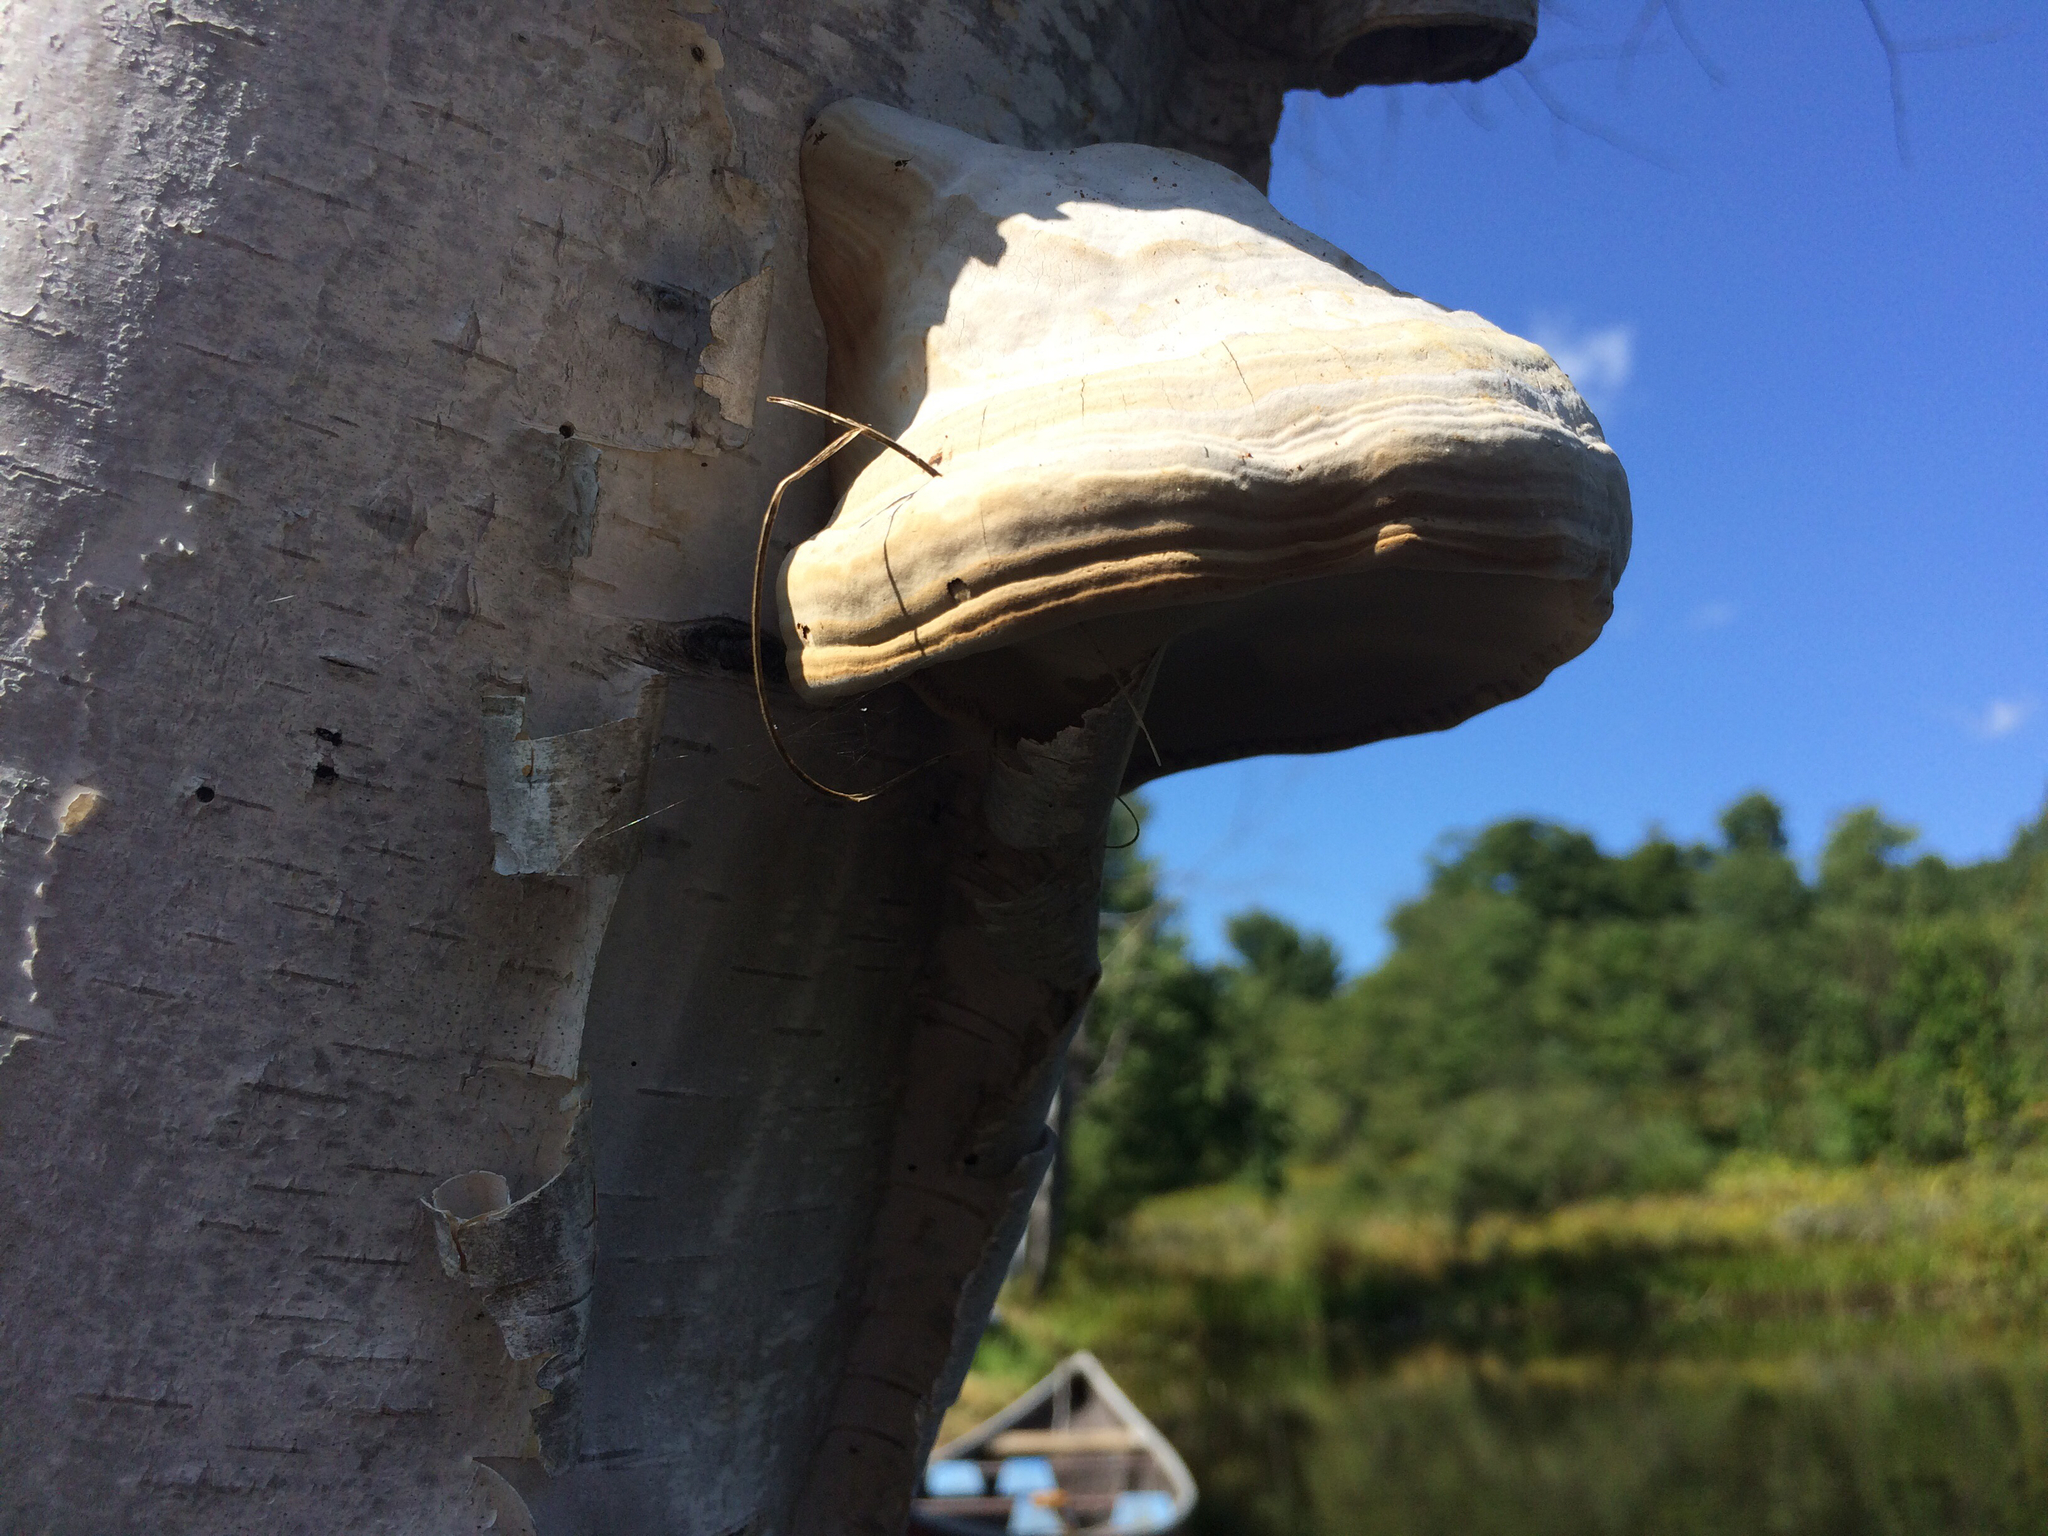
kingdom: Fungi
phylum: Basidiomycota
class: Agaricomycetes
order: Polyporales
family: Polyporaceae
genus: Fomes
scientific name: Fomes fomentarius
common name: Hoof fungus
